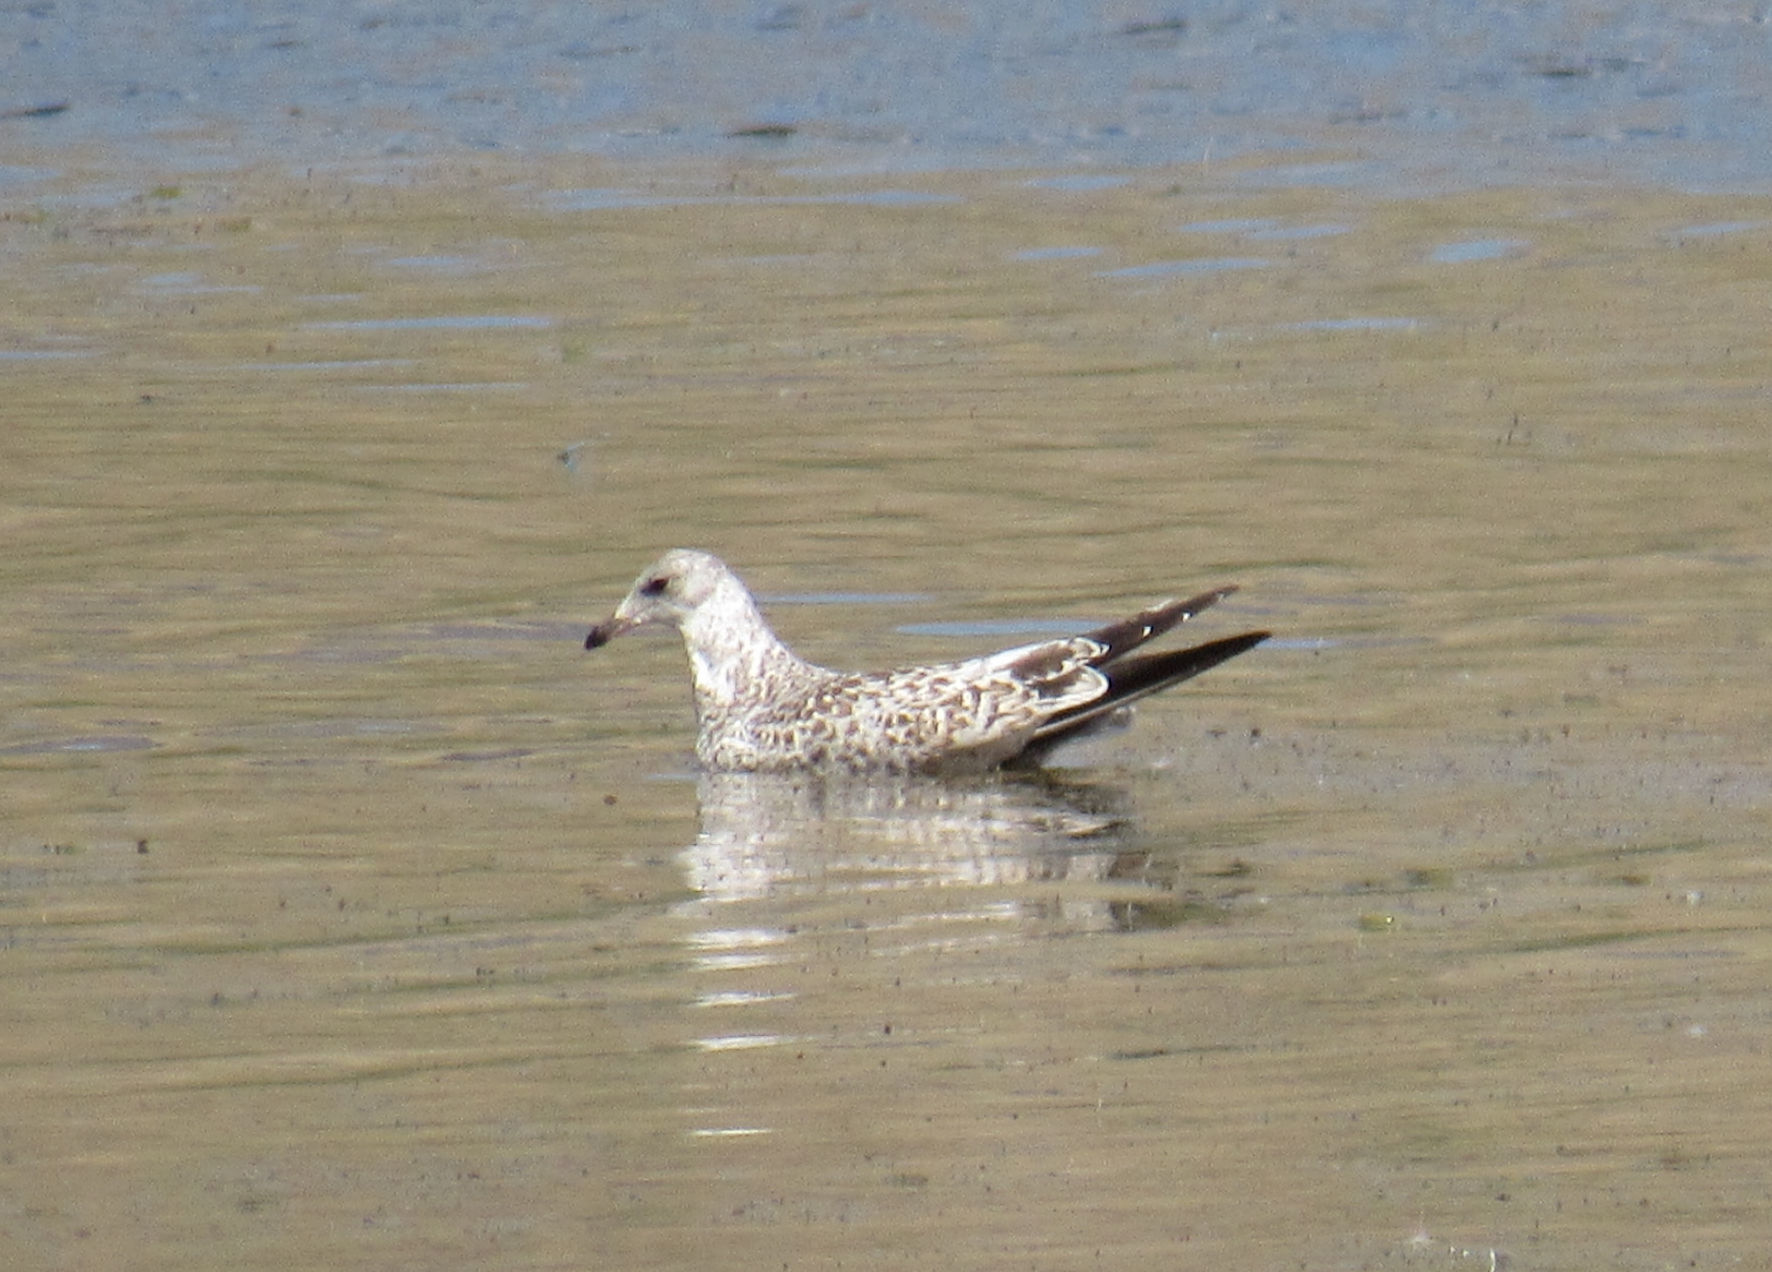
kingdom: Animalia
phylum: Chordata
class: Aves
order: Charadriiformes
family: Laridae
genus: Larus
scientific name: Larus delawarensis
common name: Ring-billed gull
